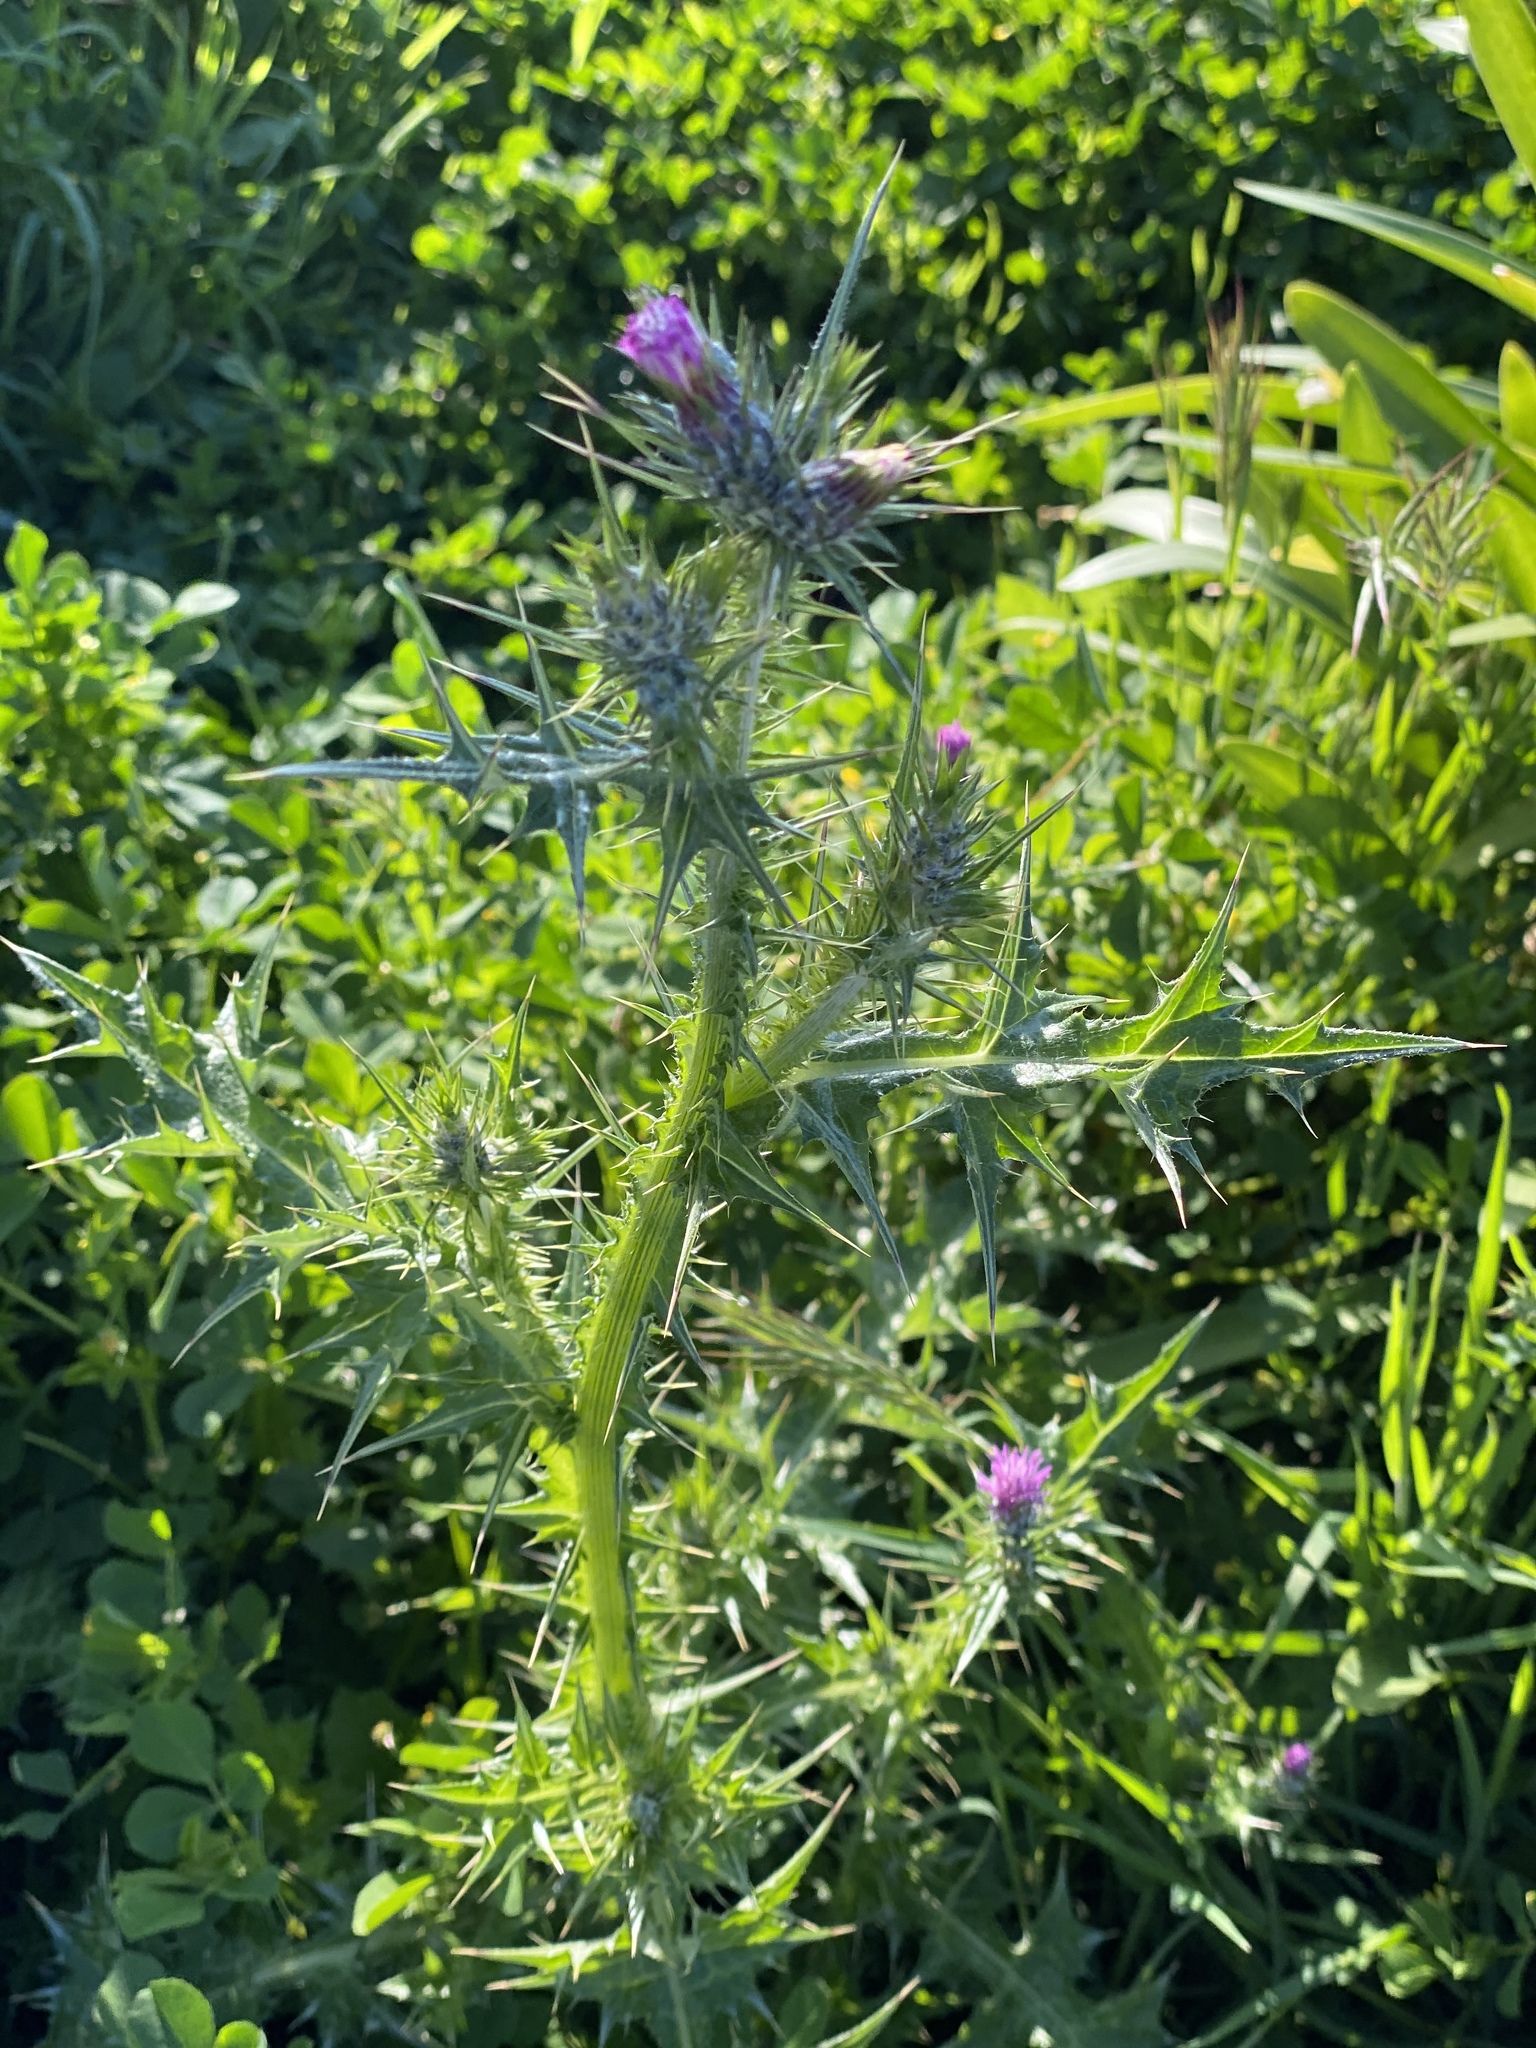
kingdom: Plantae
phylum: Tracheophyta
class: Magnoliopsida
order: Asterales
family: Asteraceae
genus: Carduus
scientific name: Carduus pycnocephalus
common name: Plymouth thistle
